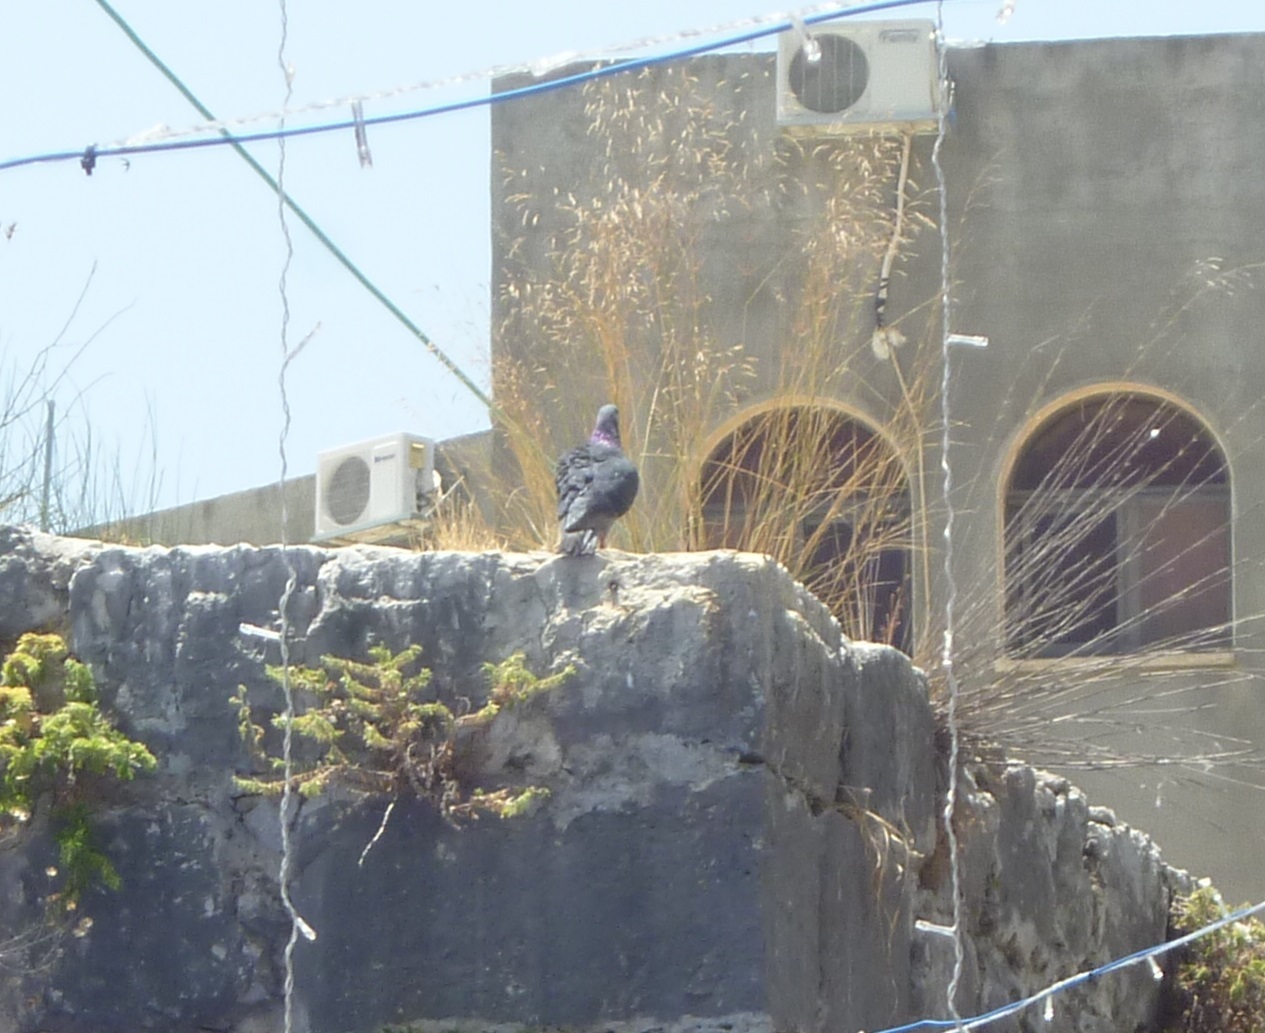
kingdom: Animalia
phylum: Chordata
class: Aves
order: Columbiformes
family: Columbidae
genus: Columba
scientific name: Columba livia
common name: Rock pigeon
